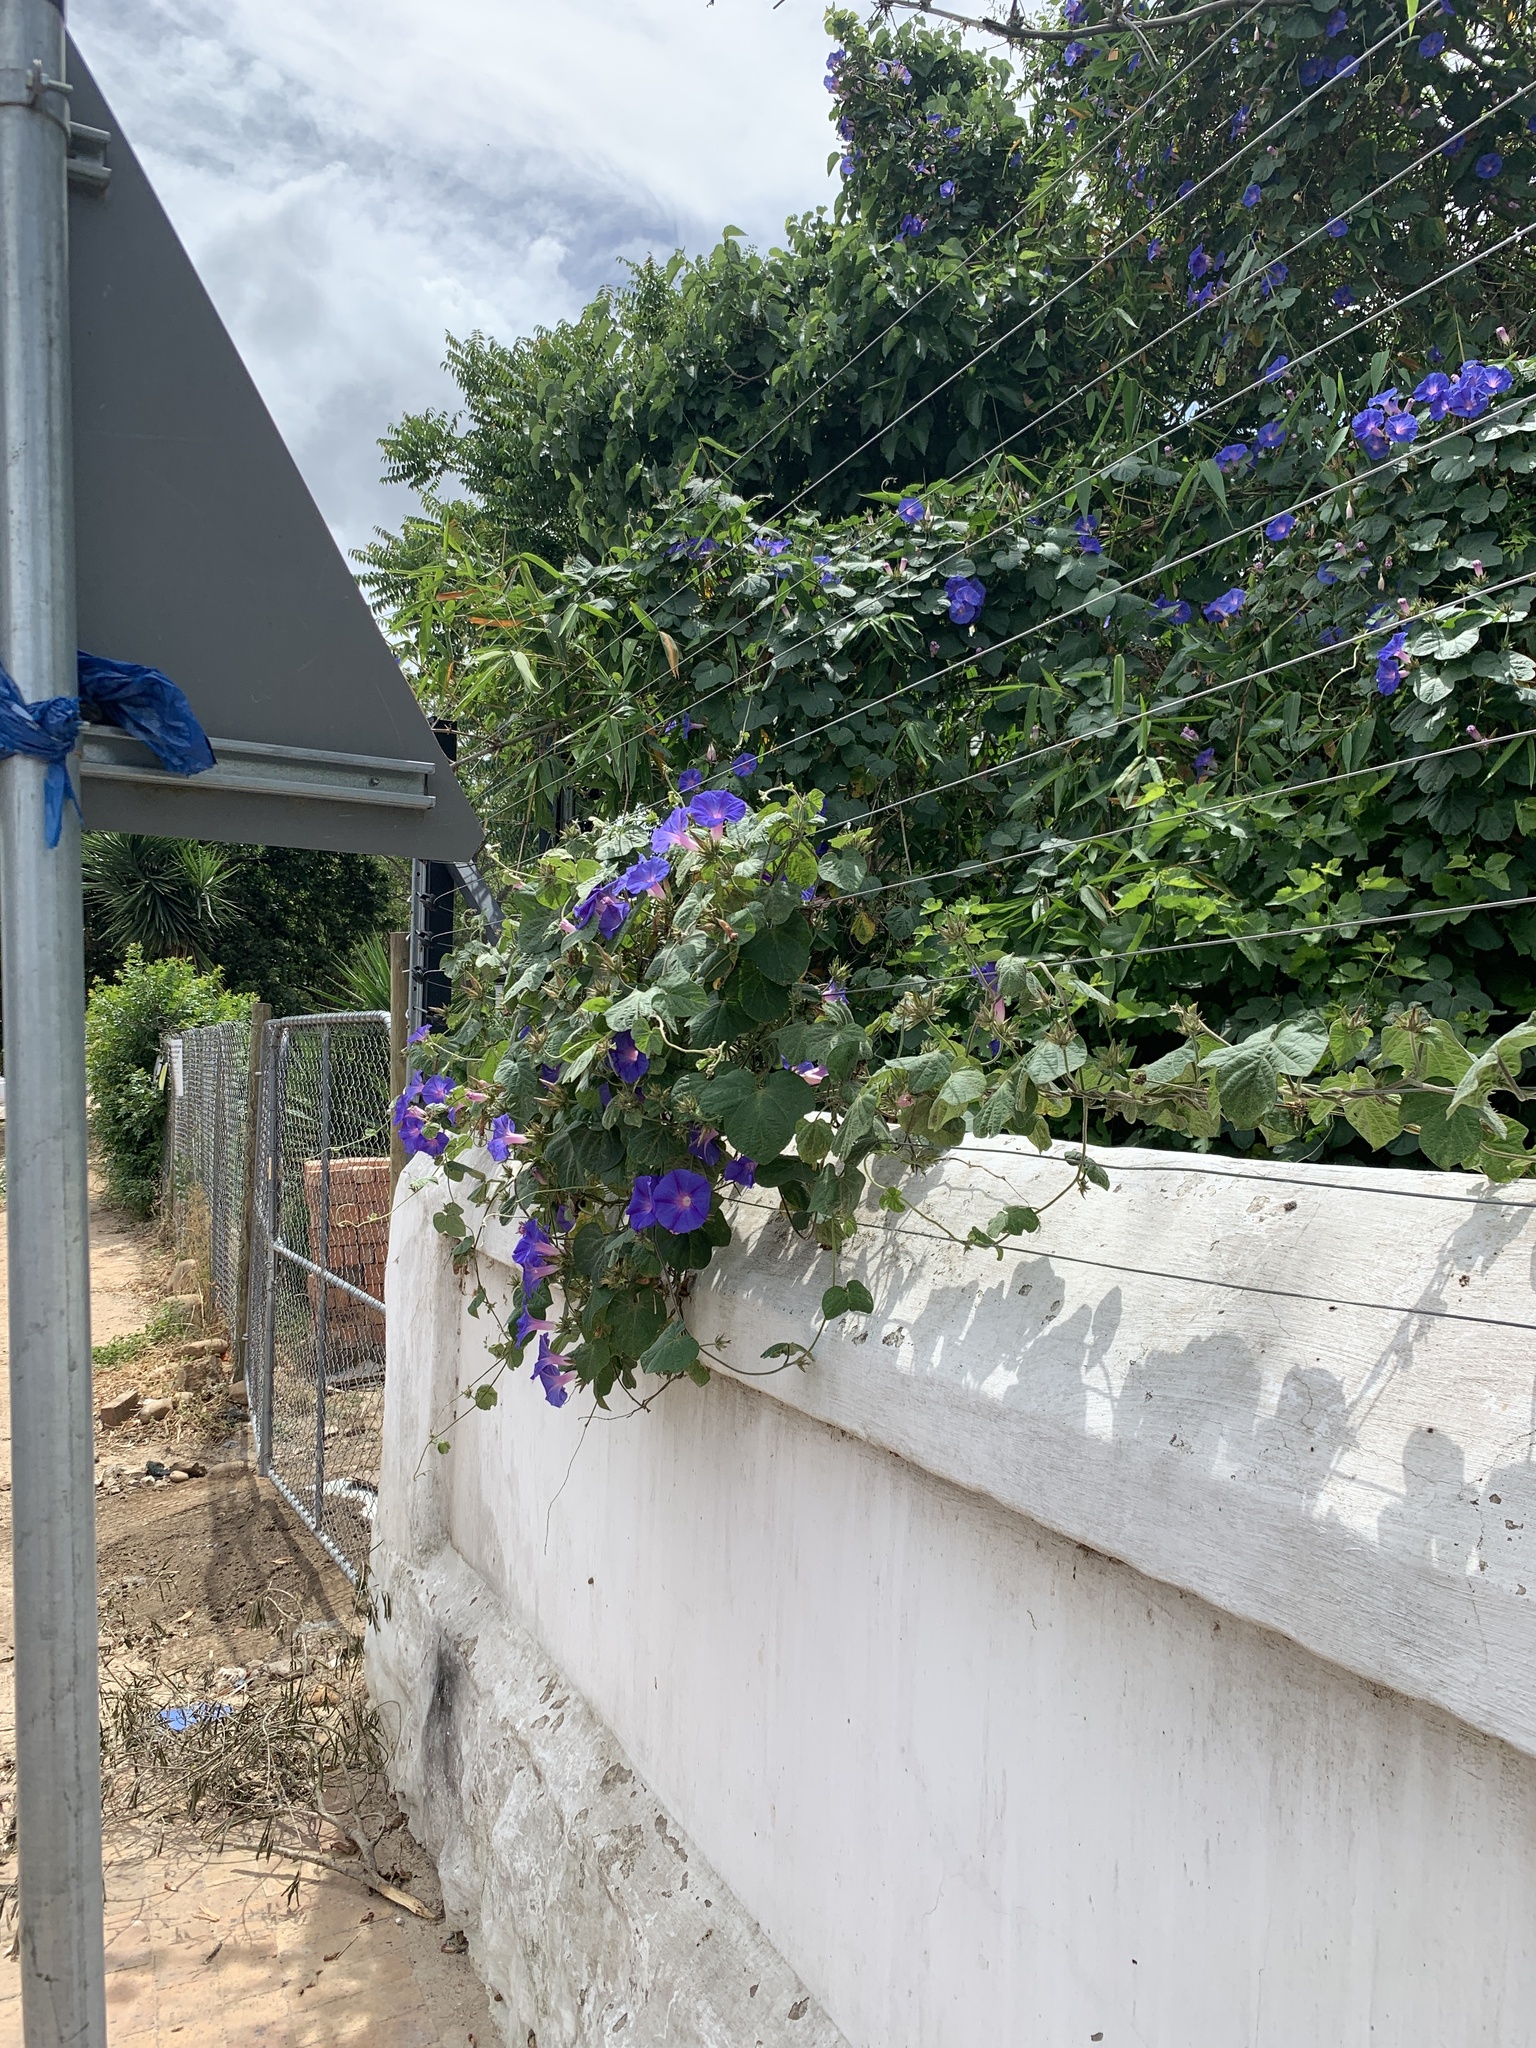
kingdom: Plantae
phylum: Tracheophyta
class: Magnoliopsida
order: Solanales
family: Convolvulaceae
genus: Ipomoea
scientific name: Ipomoea indica
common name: Blue dawnflower
